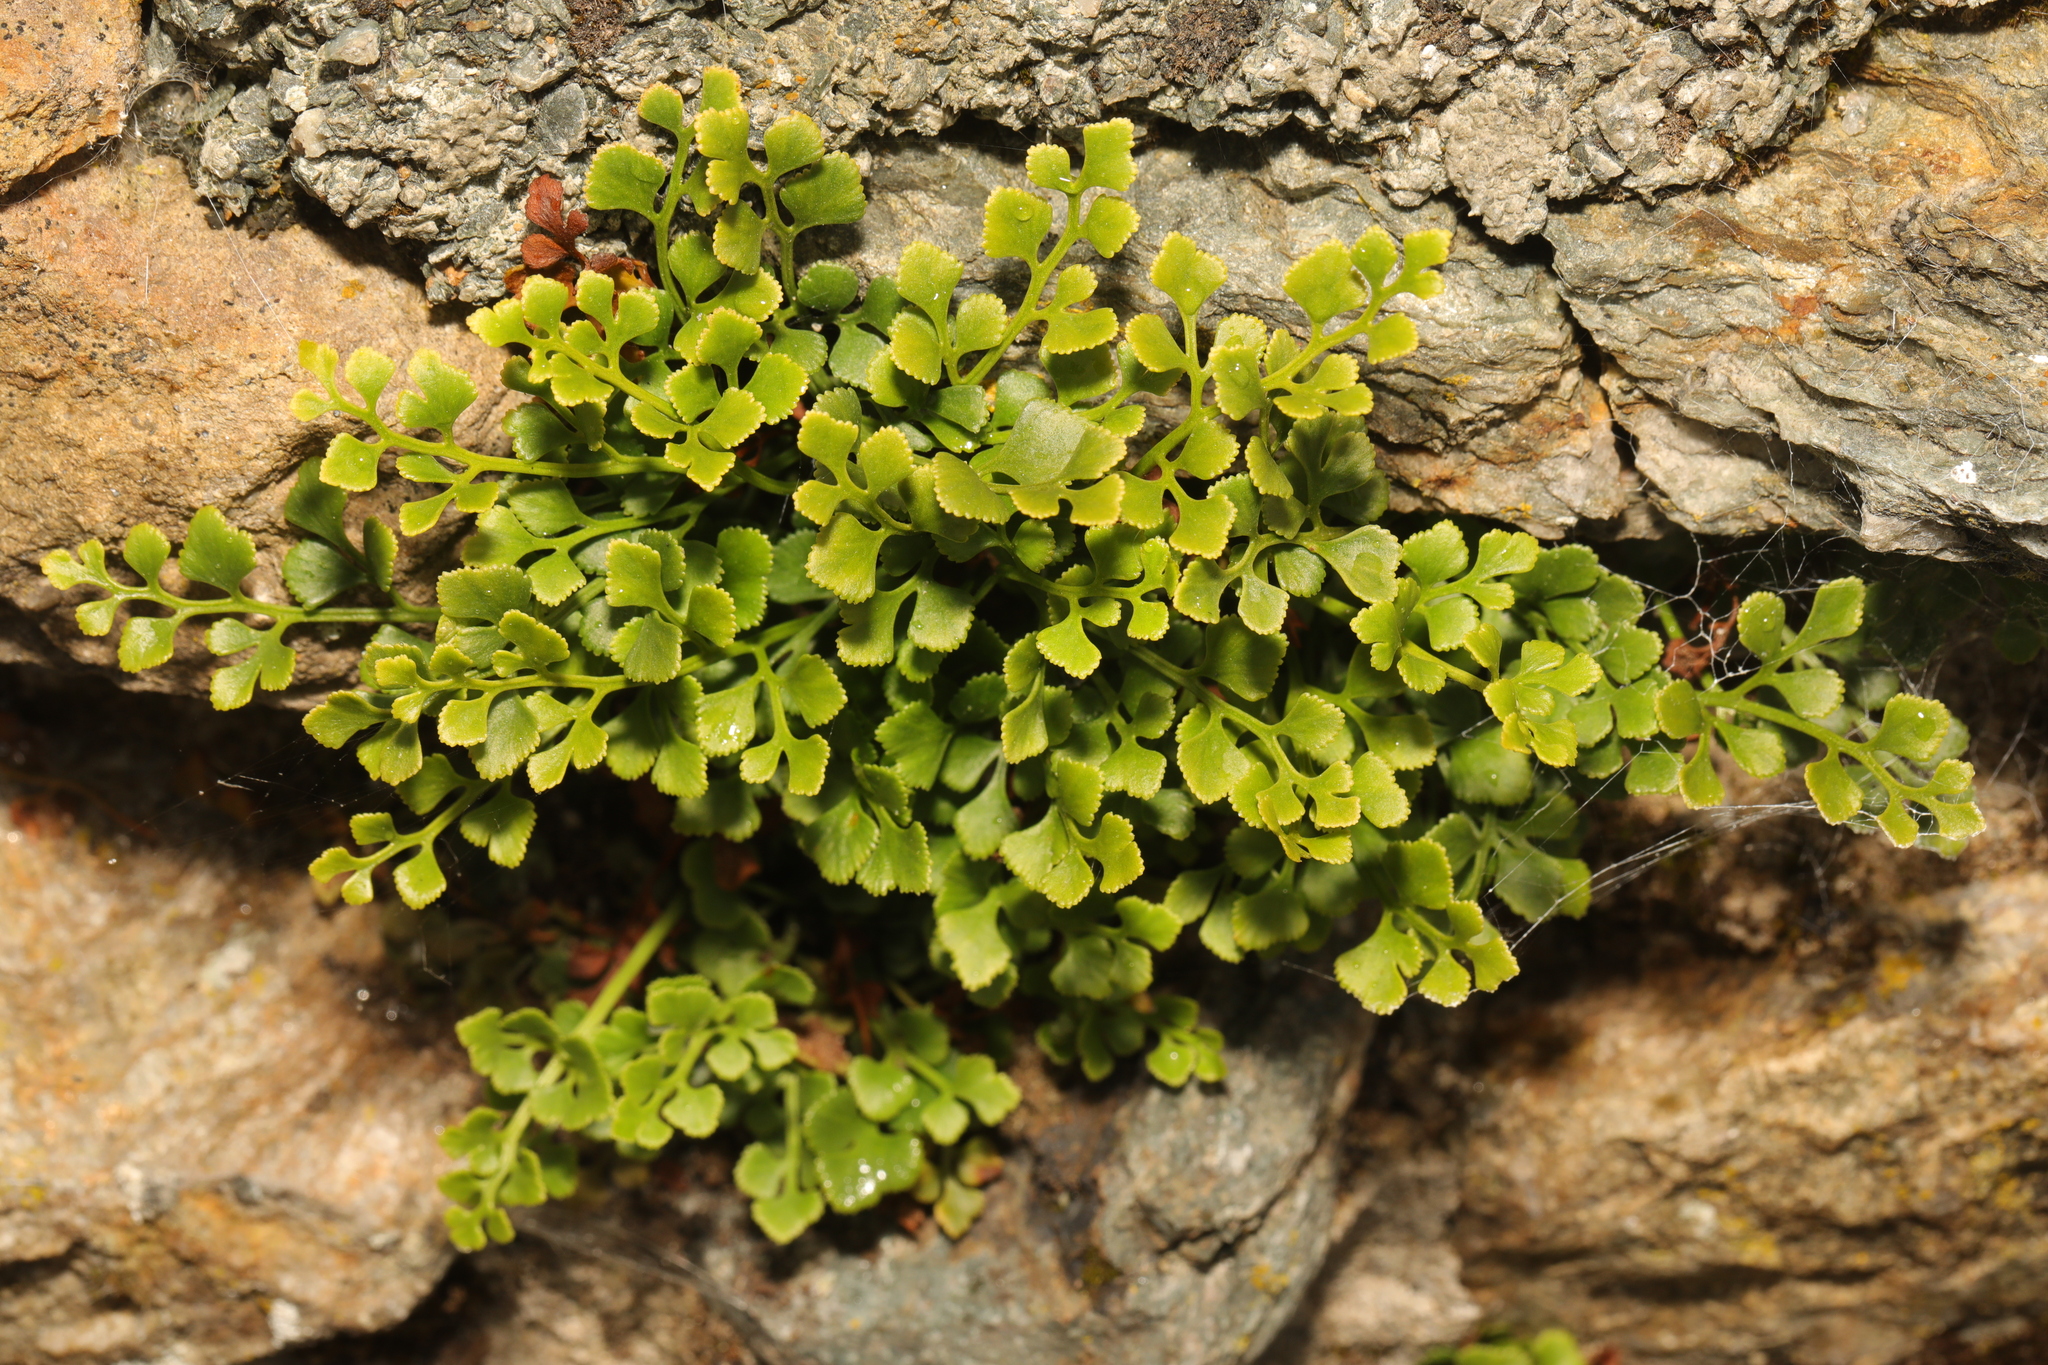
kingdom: Plantae
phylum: Tracheophyta
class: Polypodiopsida
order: Polypodiales
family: Aspleniaceae
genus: Asplenium
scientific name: Asplenium ruta-muraria
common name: Wall-rue
